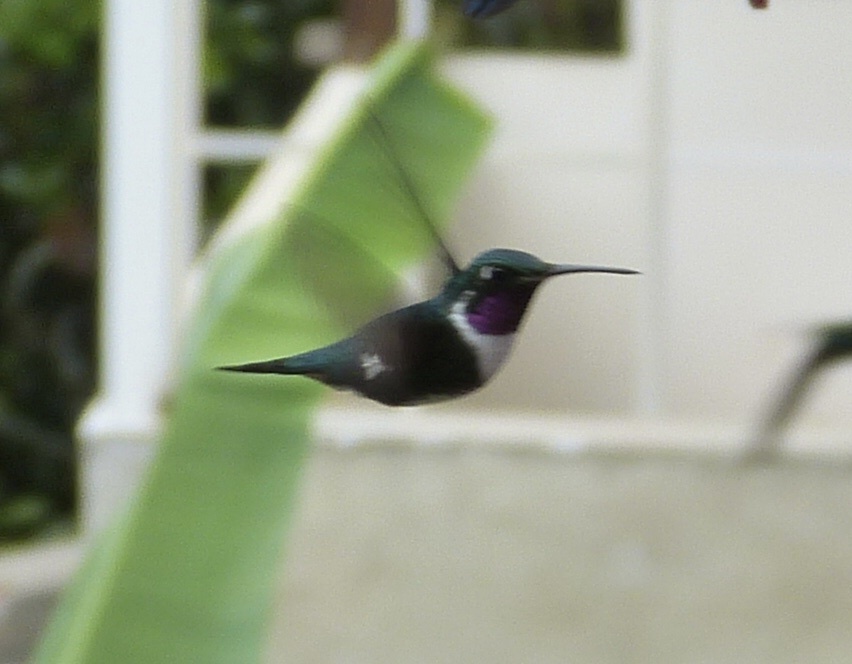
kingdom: Animalia
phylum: Chordata
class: Aves
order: Apodiformes
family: Trochilidae
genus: Chaetocercus
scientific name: Chaetocercus mulsant
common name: White-bellied woodstar
